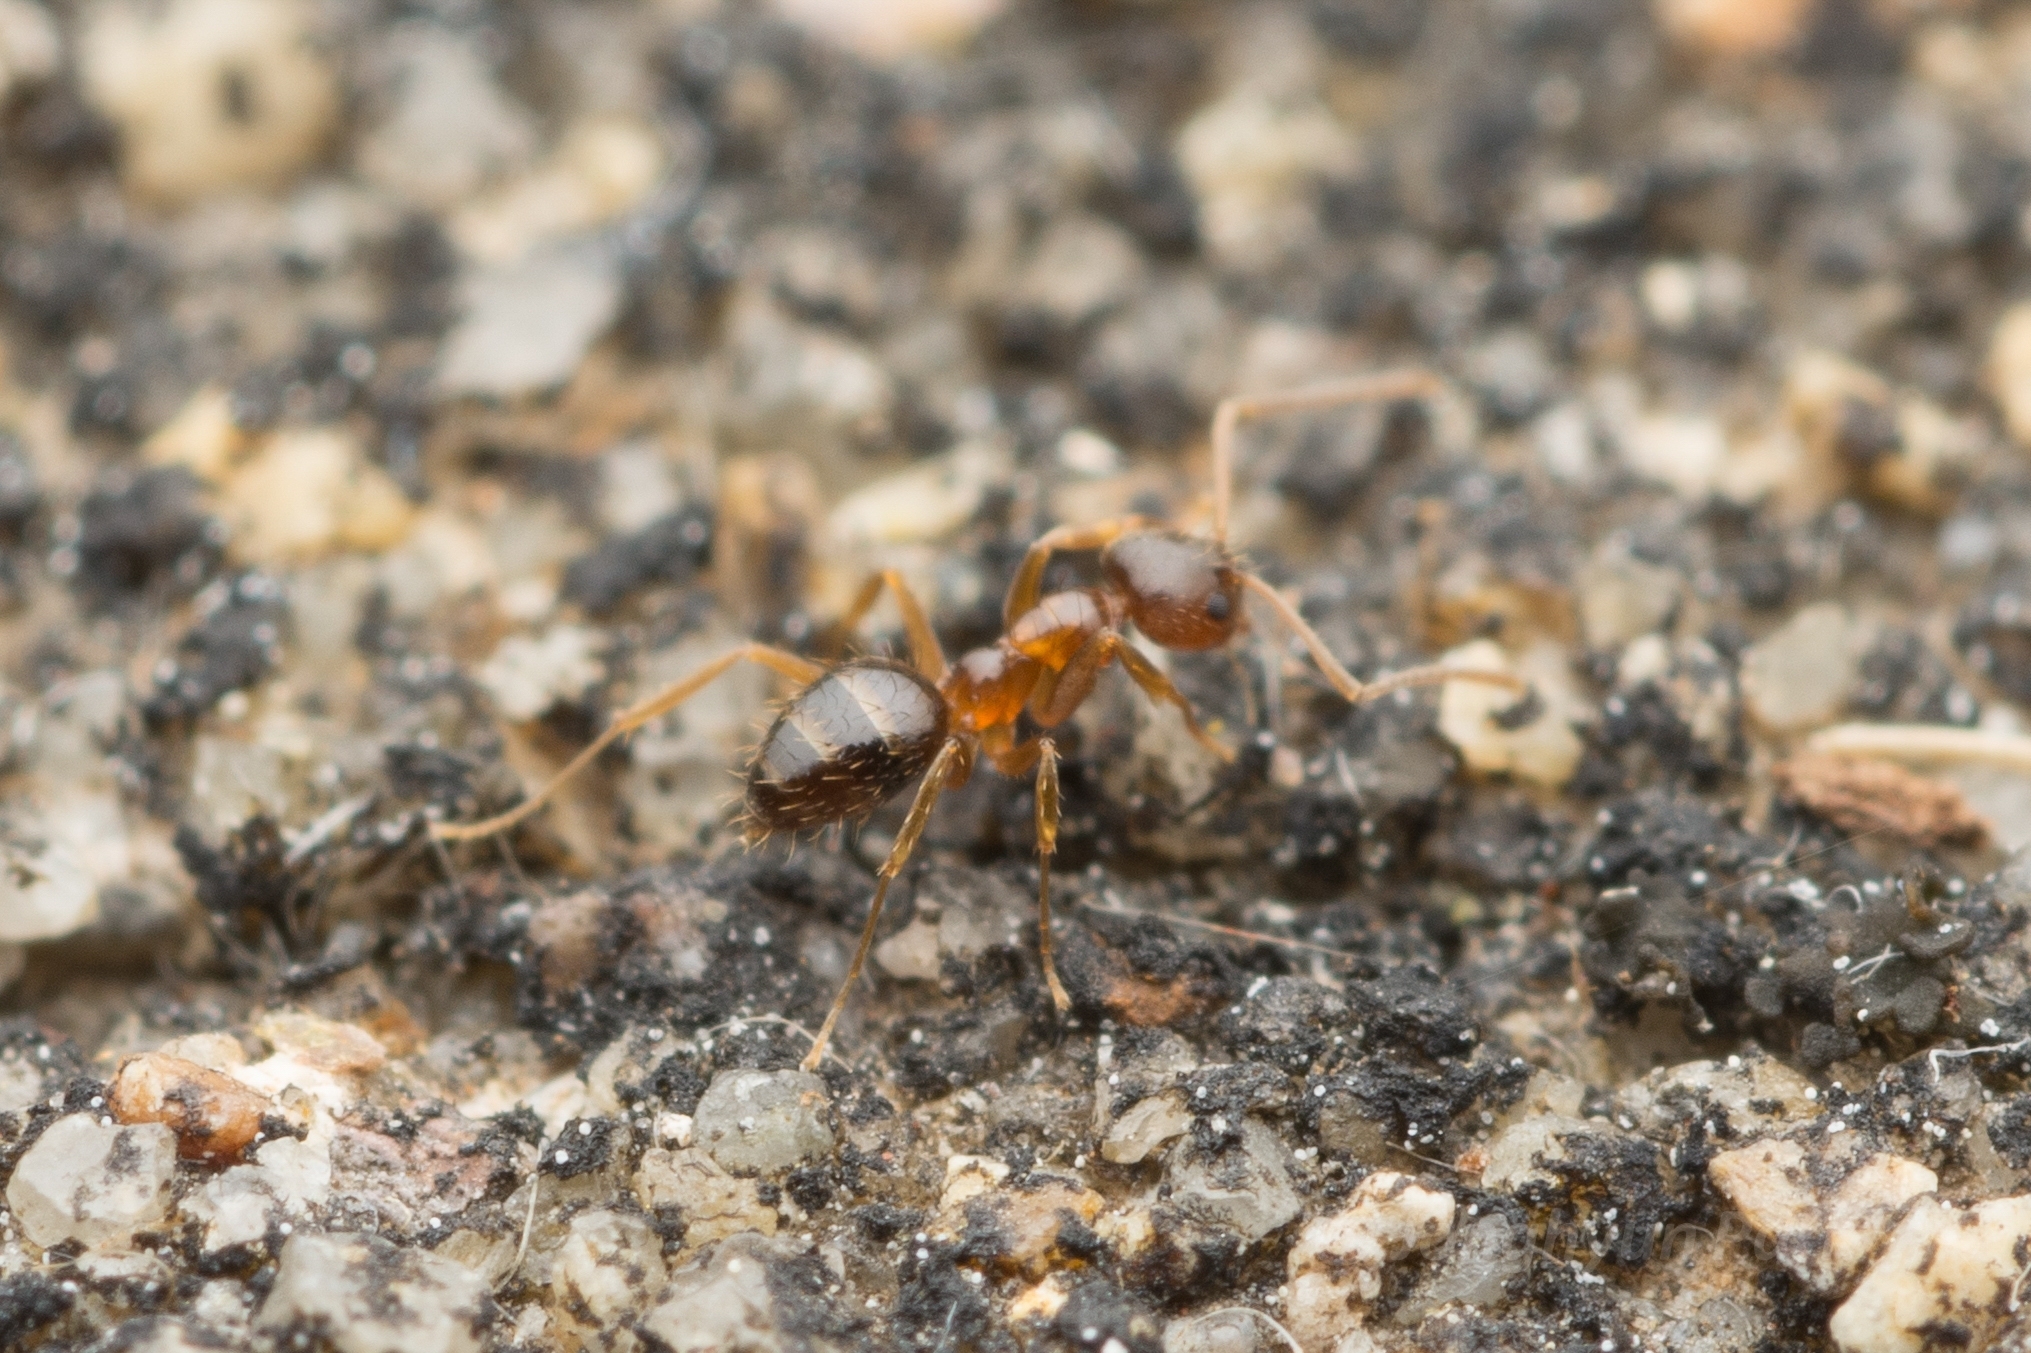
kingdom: Animalia
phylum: Arthropoda
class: Insecta
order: Hymenoptera
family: Formicidae
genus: Paratrechina
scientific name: Paratrechina flavipes
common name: Eastern asian formicine ant
